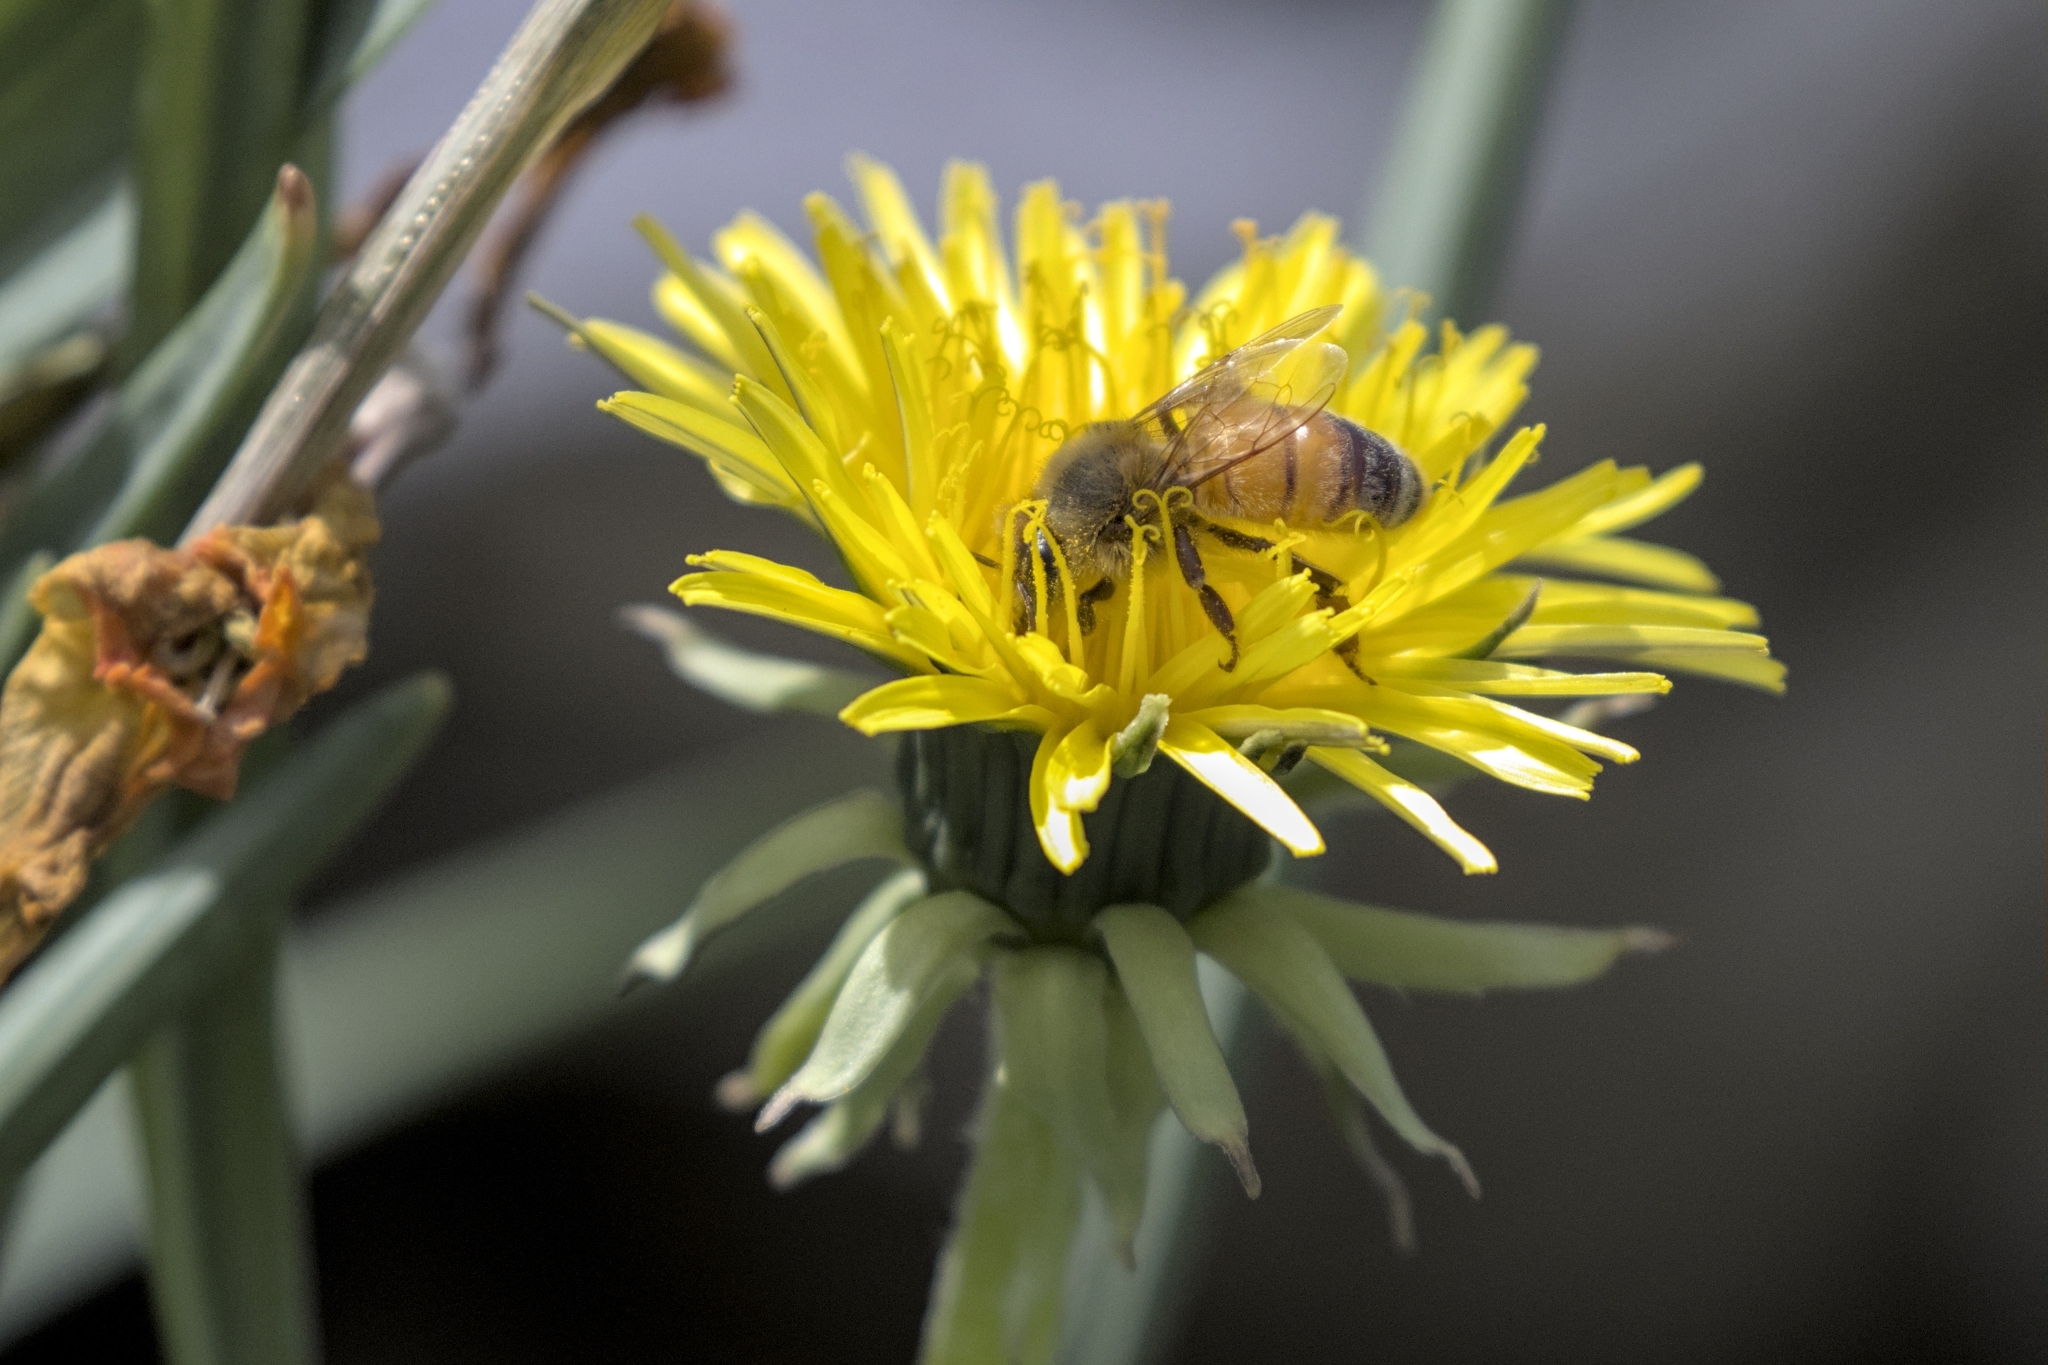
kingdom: Animalia
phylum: Arthropoda
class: Insecta
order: Hymenoptera
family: Apidae
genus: Apis
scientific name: Apis mellifera
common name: Honey bee
